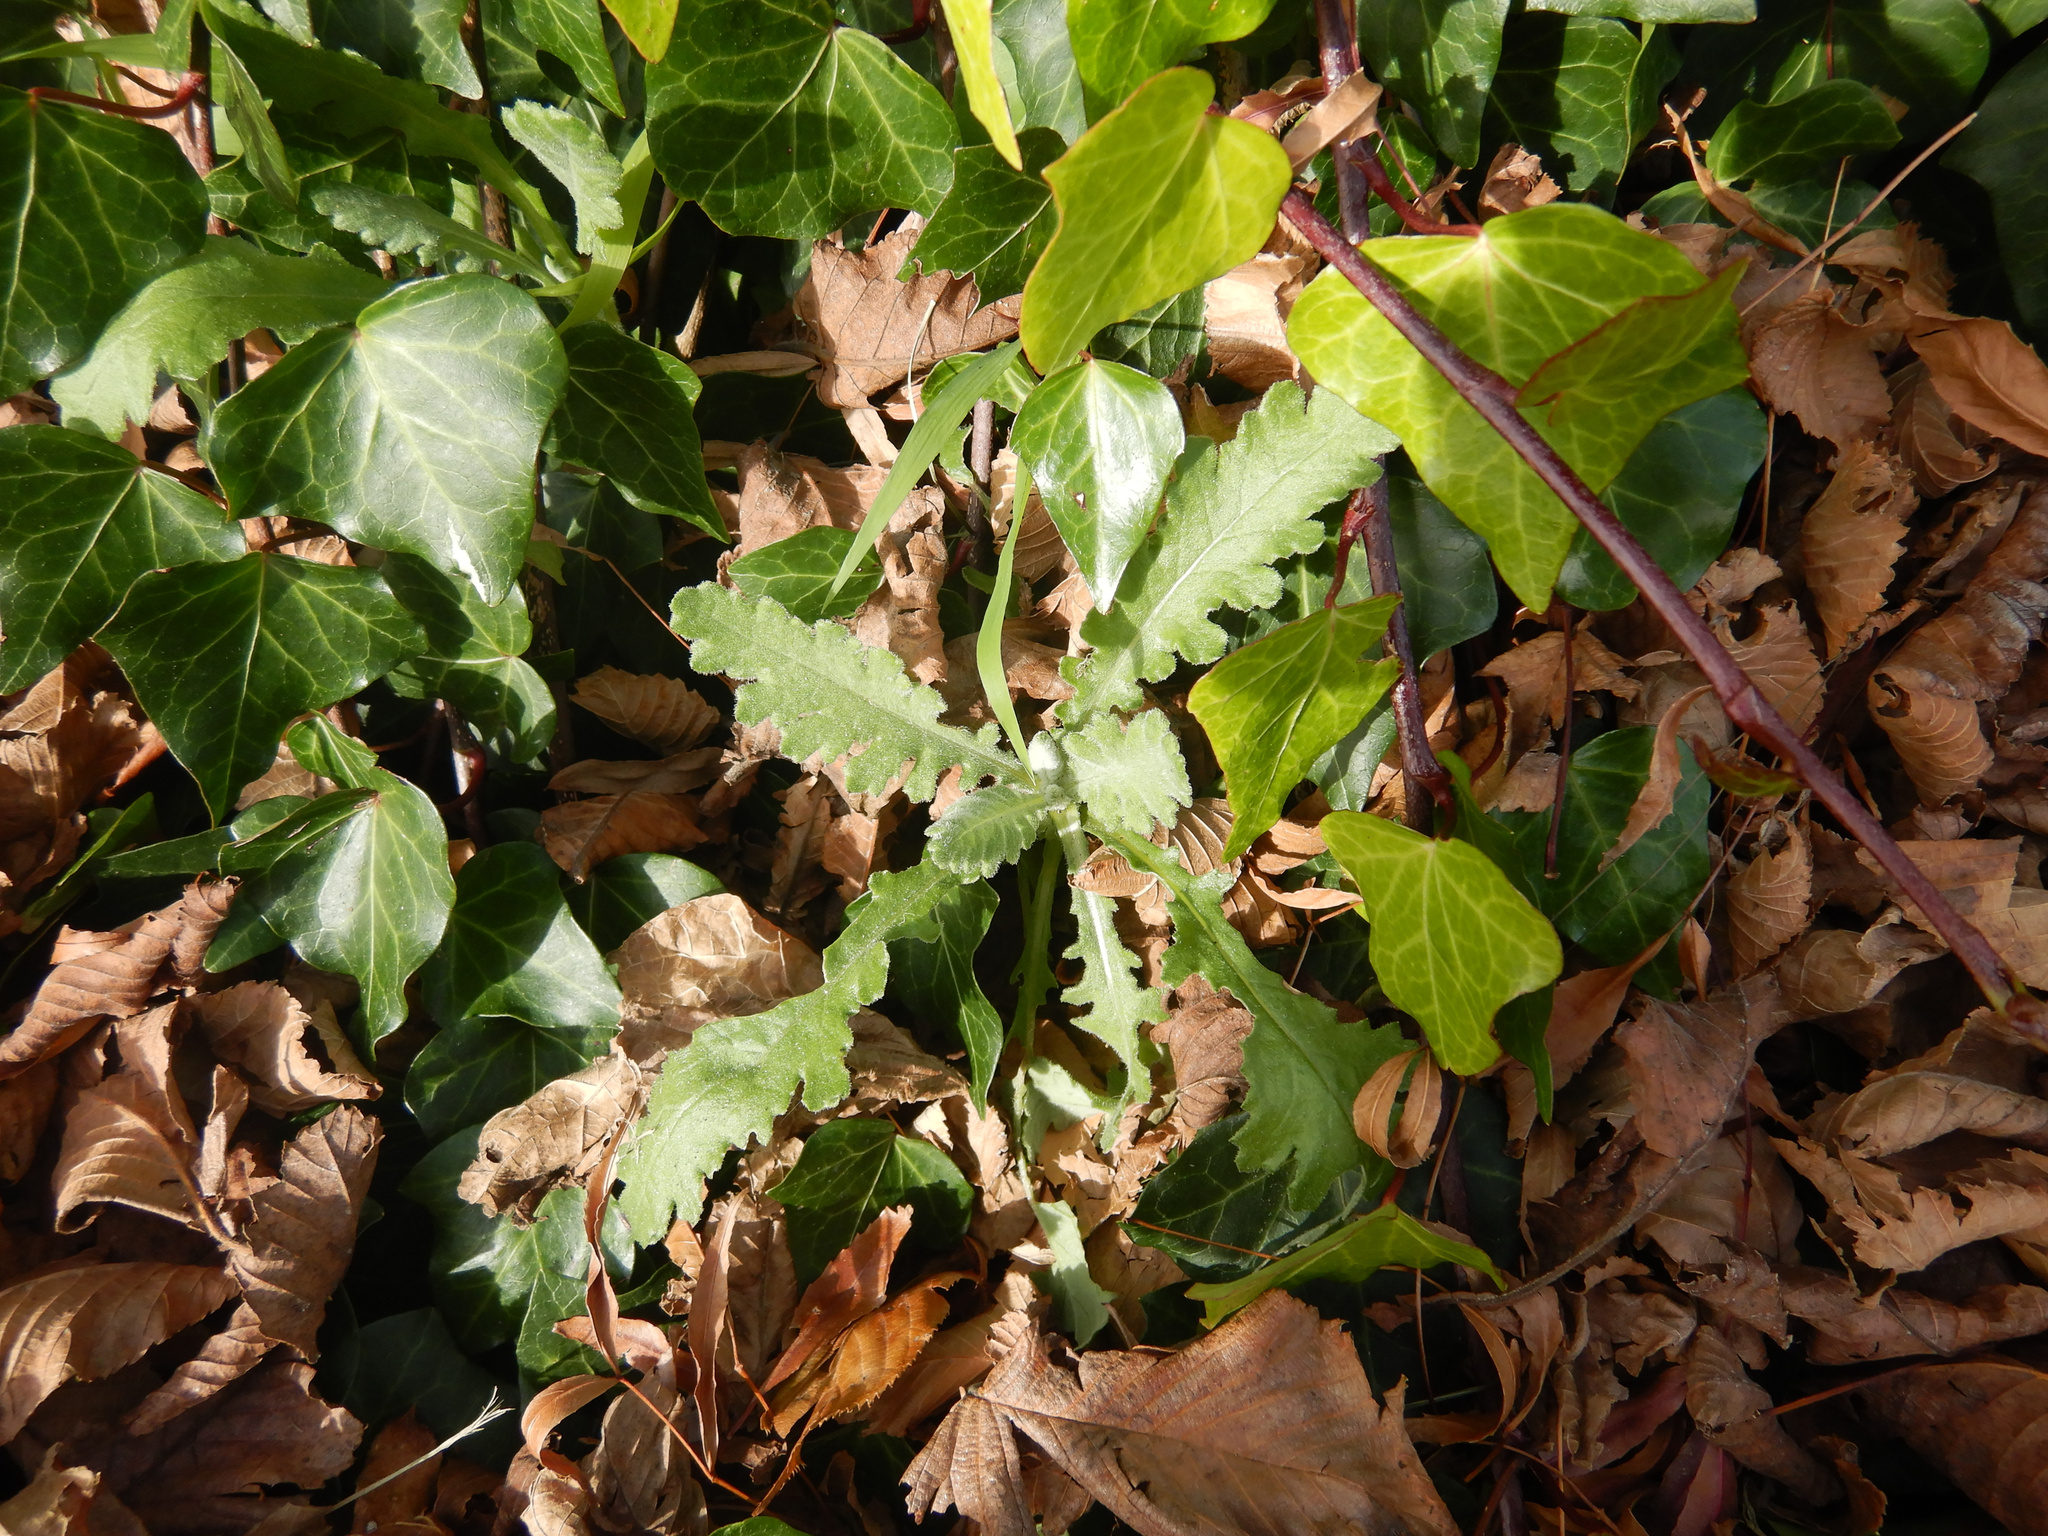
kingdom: Plantae
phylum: Tracheophyta
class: Magnoliopsida
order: Asterales
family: Asteraceae
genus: Senecio
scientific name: Senecio glomeratus
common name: Cutleaf burnweed
